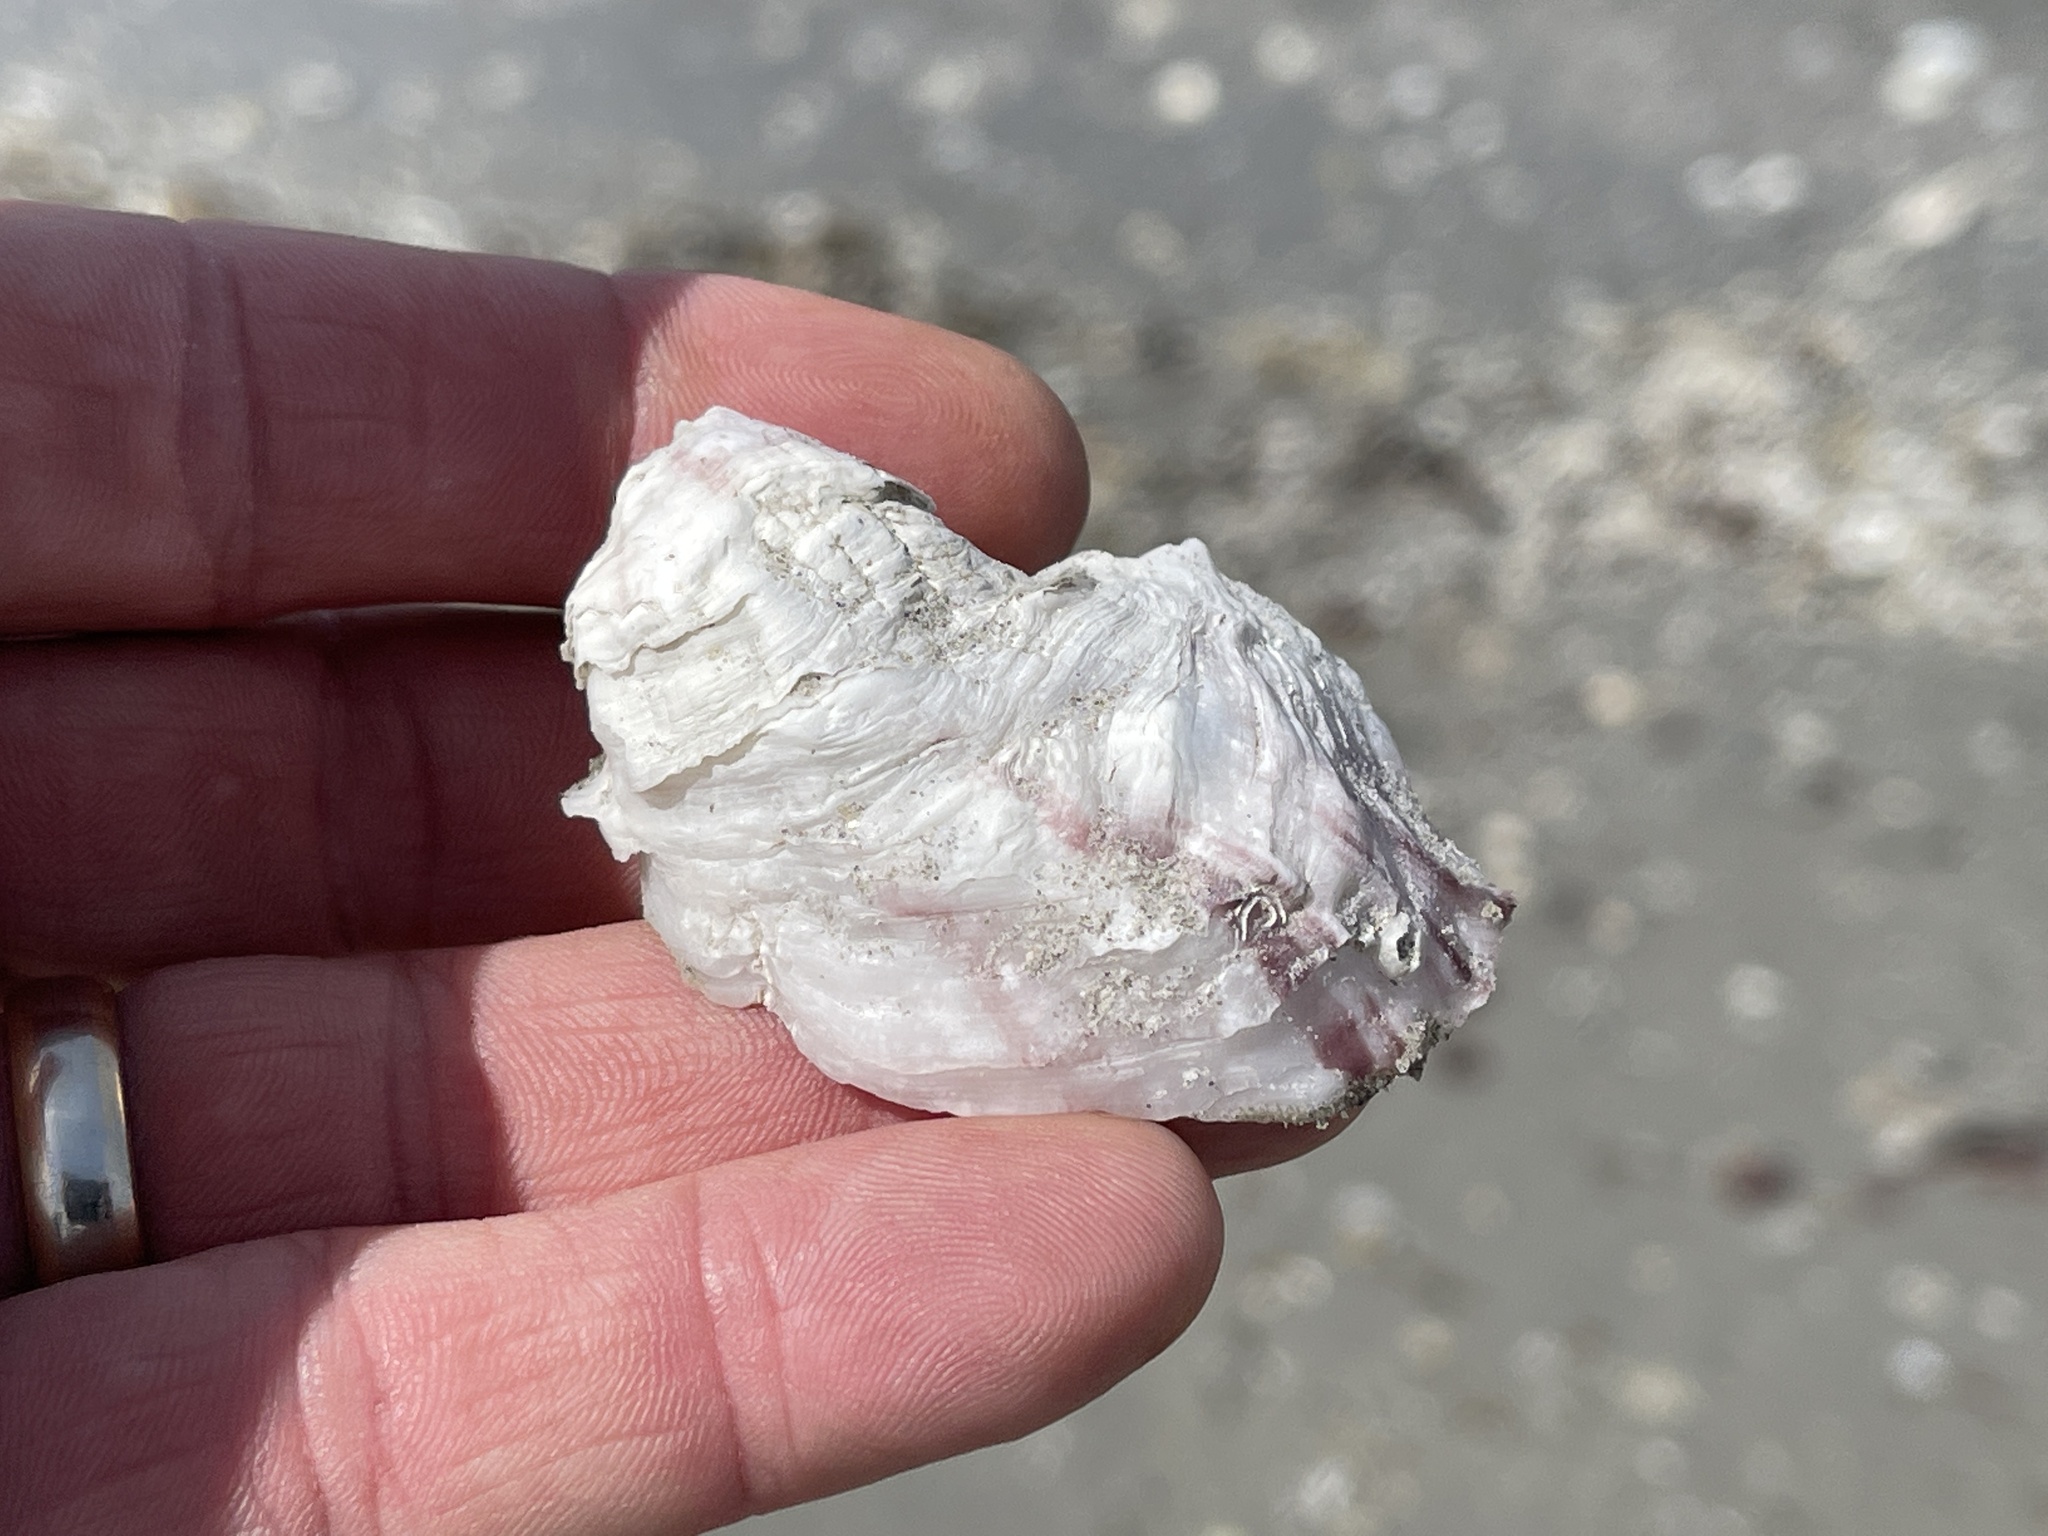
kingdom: Animalia
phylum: Mollusca
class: Bivalvia
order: Ostreida
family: Ostreidae
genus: Crassostrea
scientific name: Crassostrea virginica
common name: American oyster
